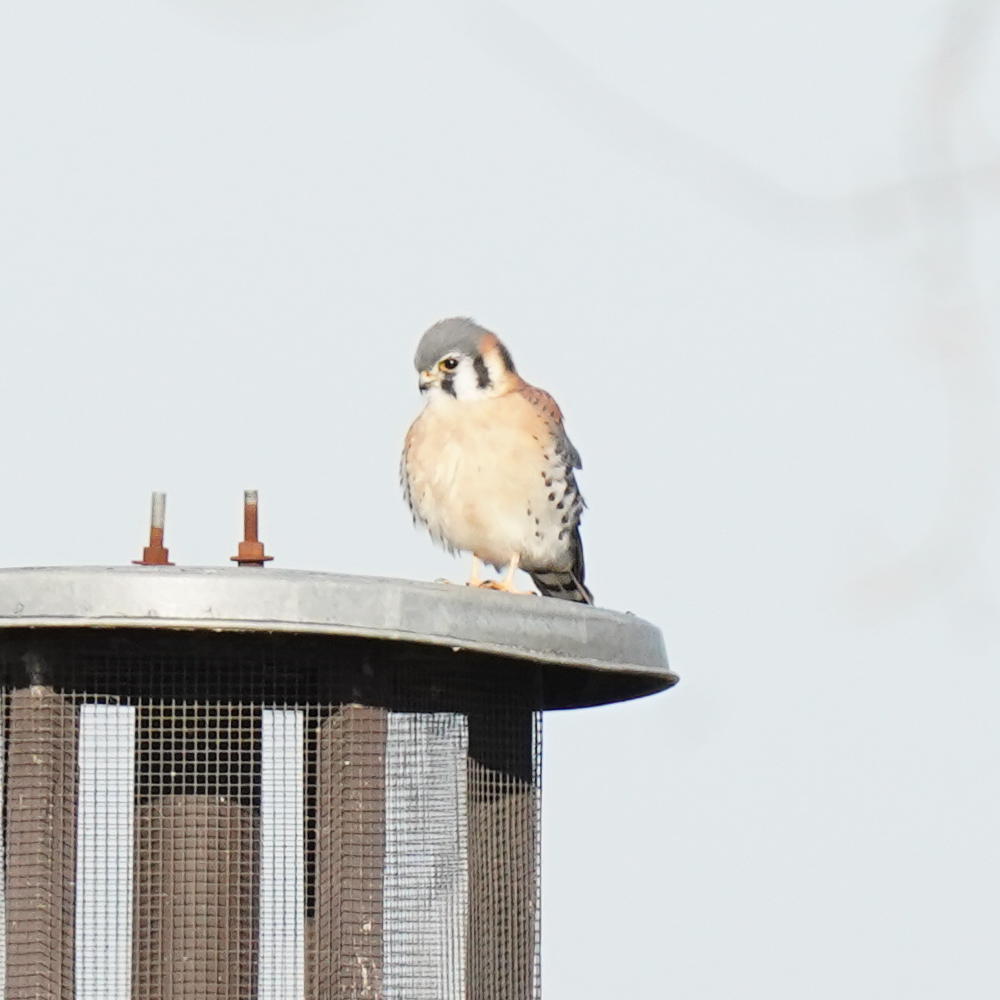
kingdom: Animalia
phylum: Chordata
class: Aves
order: Falconiformes
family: Falconidae
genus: Falco
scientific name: Falco sparverius
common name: American kestrel
